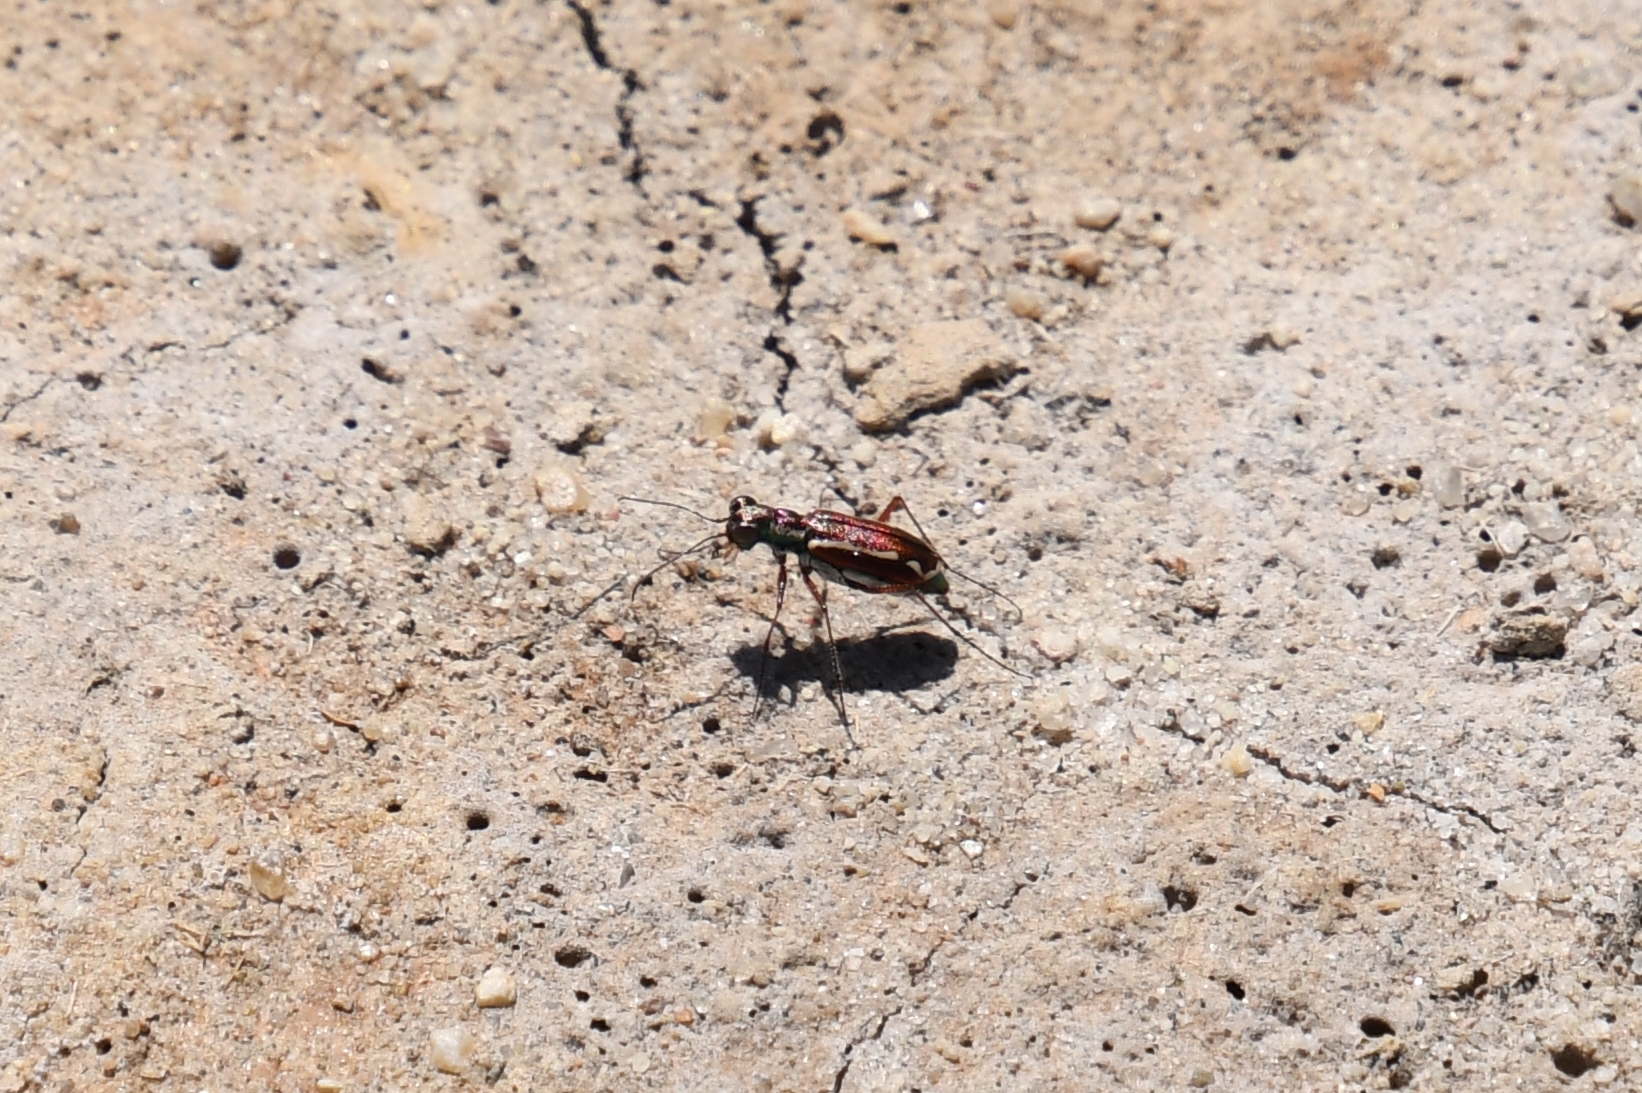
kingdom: Animalia
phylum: Arthropoda
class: Insecta
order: Coleoptera
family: Carabidae
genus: Cylindera
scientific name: Cylindera lemniscata
